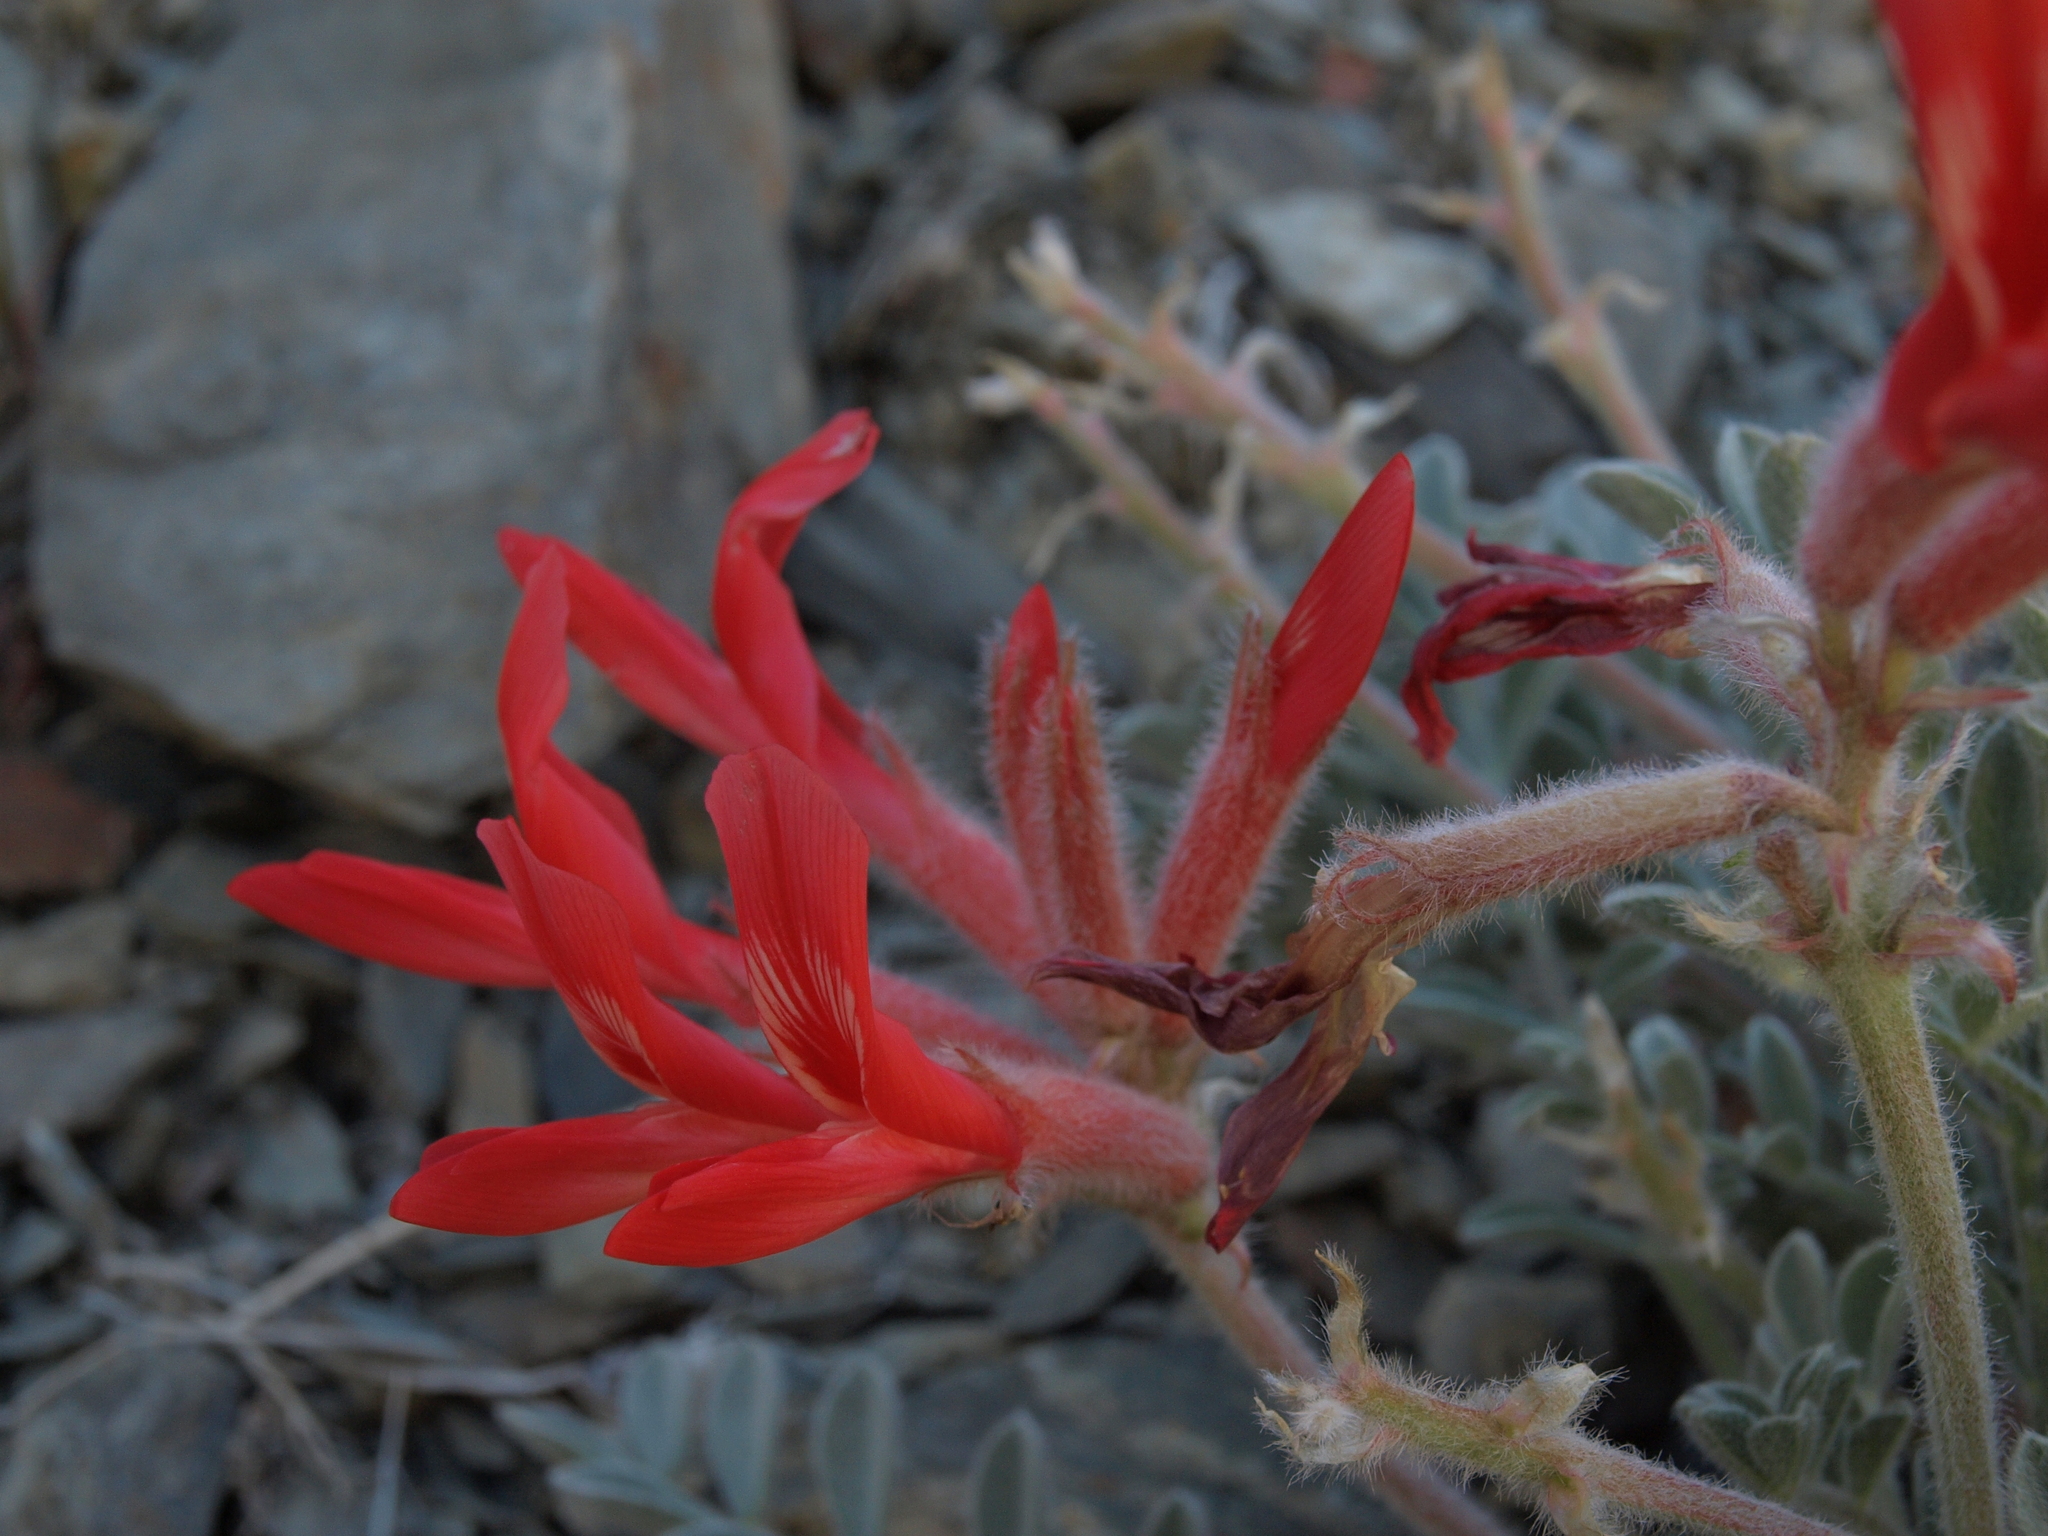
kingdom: Plantae
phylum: Tracheophyta
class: Magnoliopsida
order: Fabales
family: Fabaceae
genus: Astragalus
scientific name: Astragalus coccineus
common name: Scarlet milk-vetch
